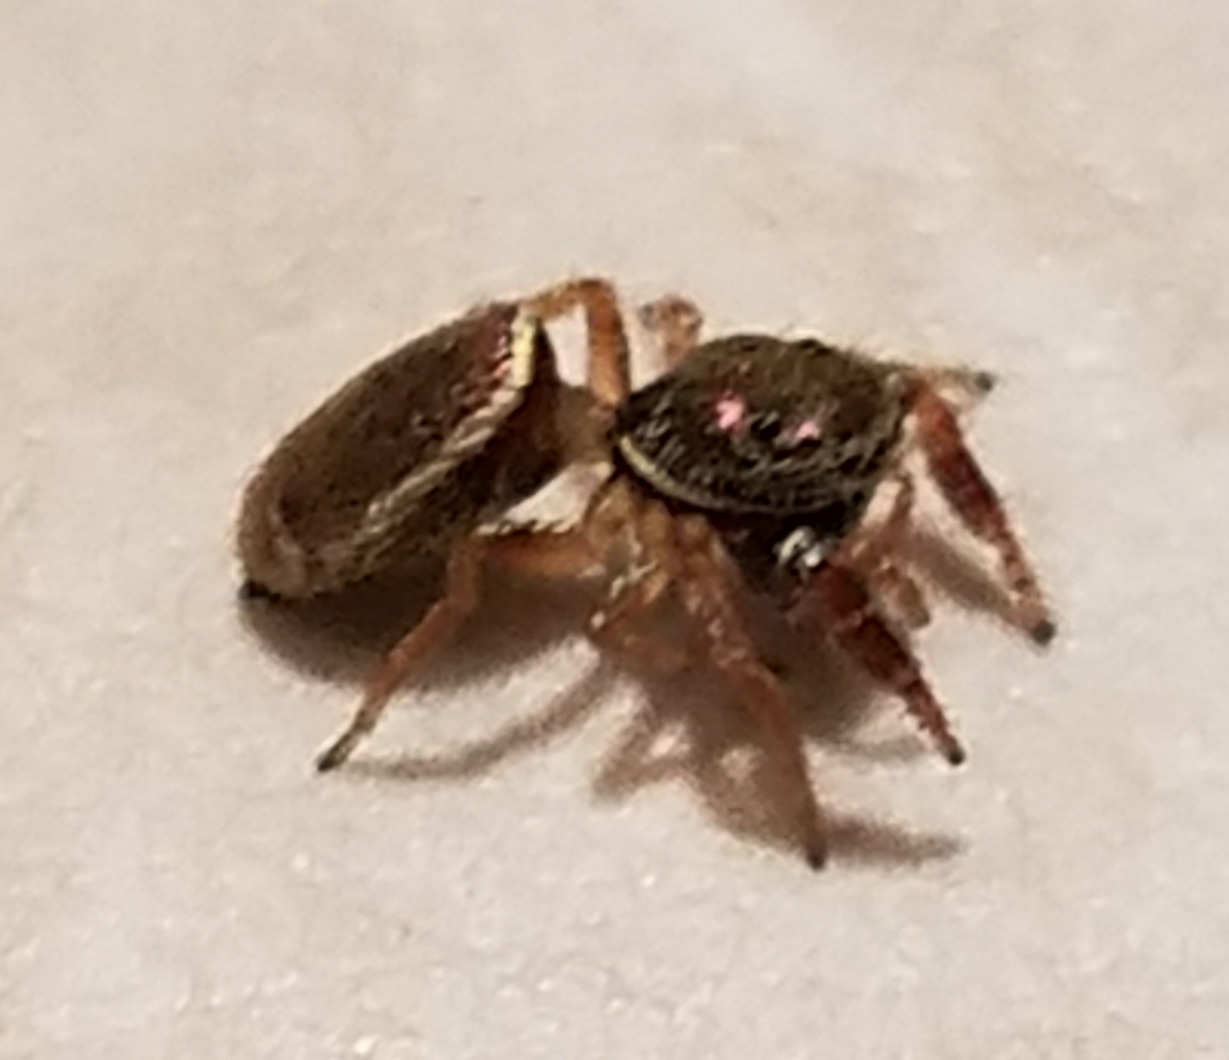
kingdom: Animalia
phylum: Arthropoda
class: Arachnida
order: Araneae
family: Salticidae
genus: Sassacus
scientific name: Sassacus vitis
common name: Jumping spiders
